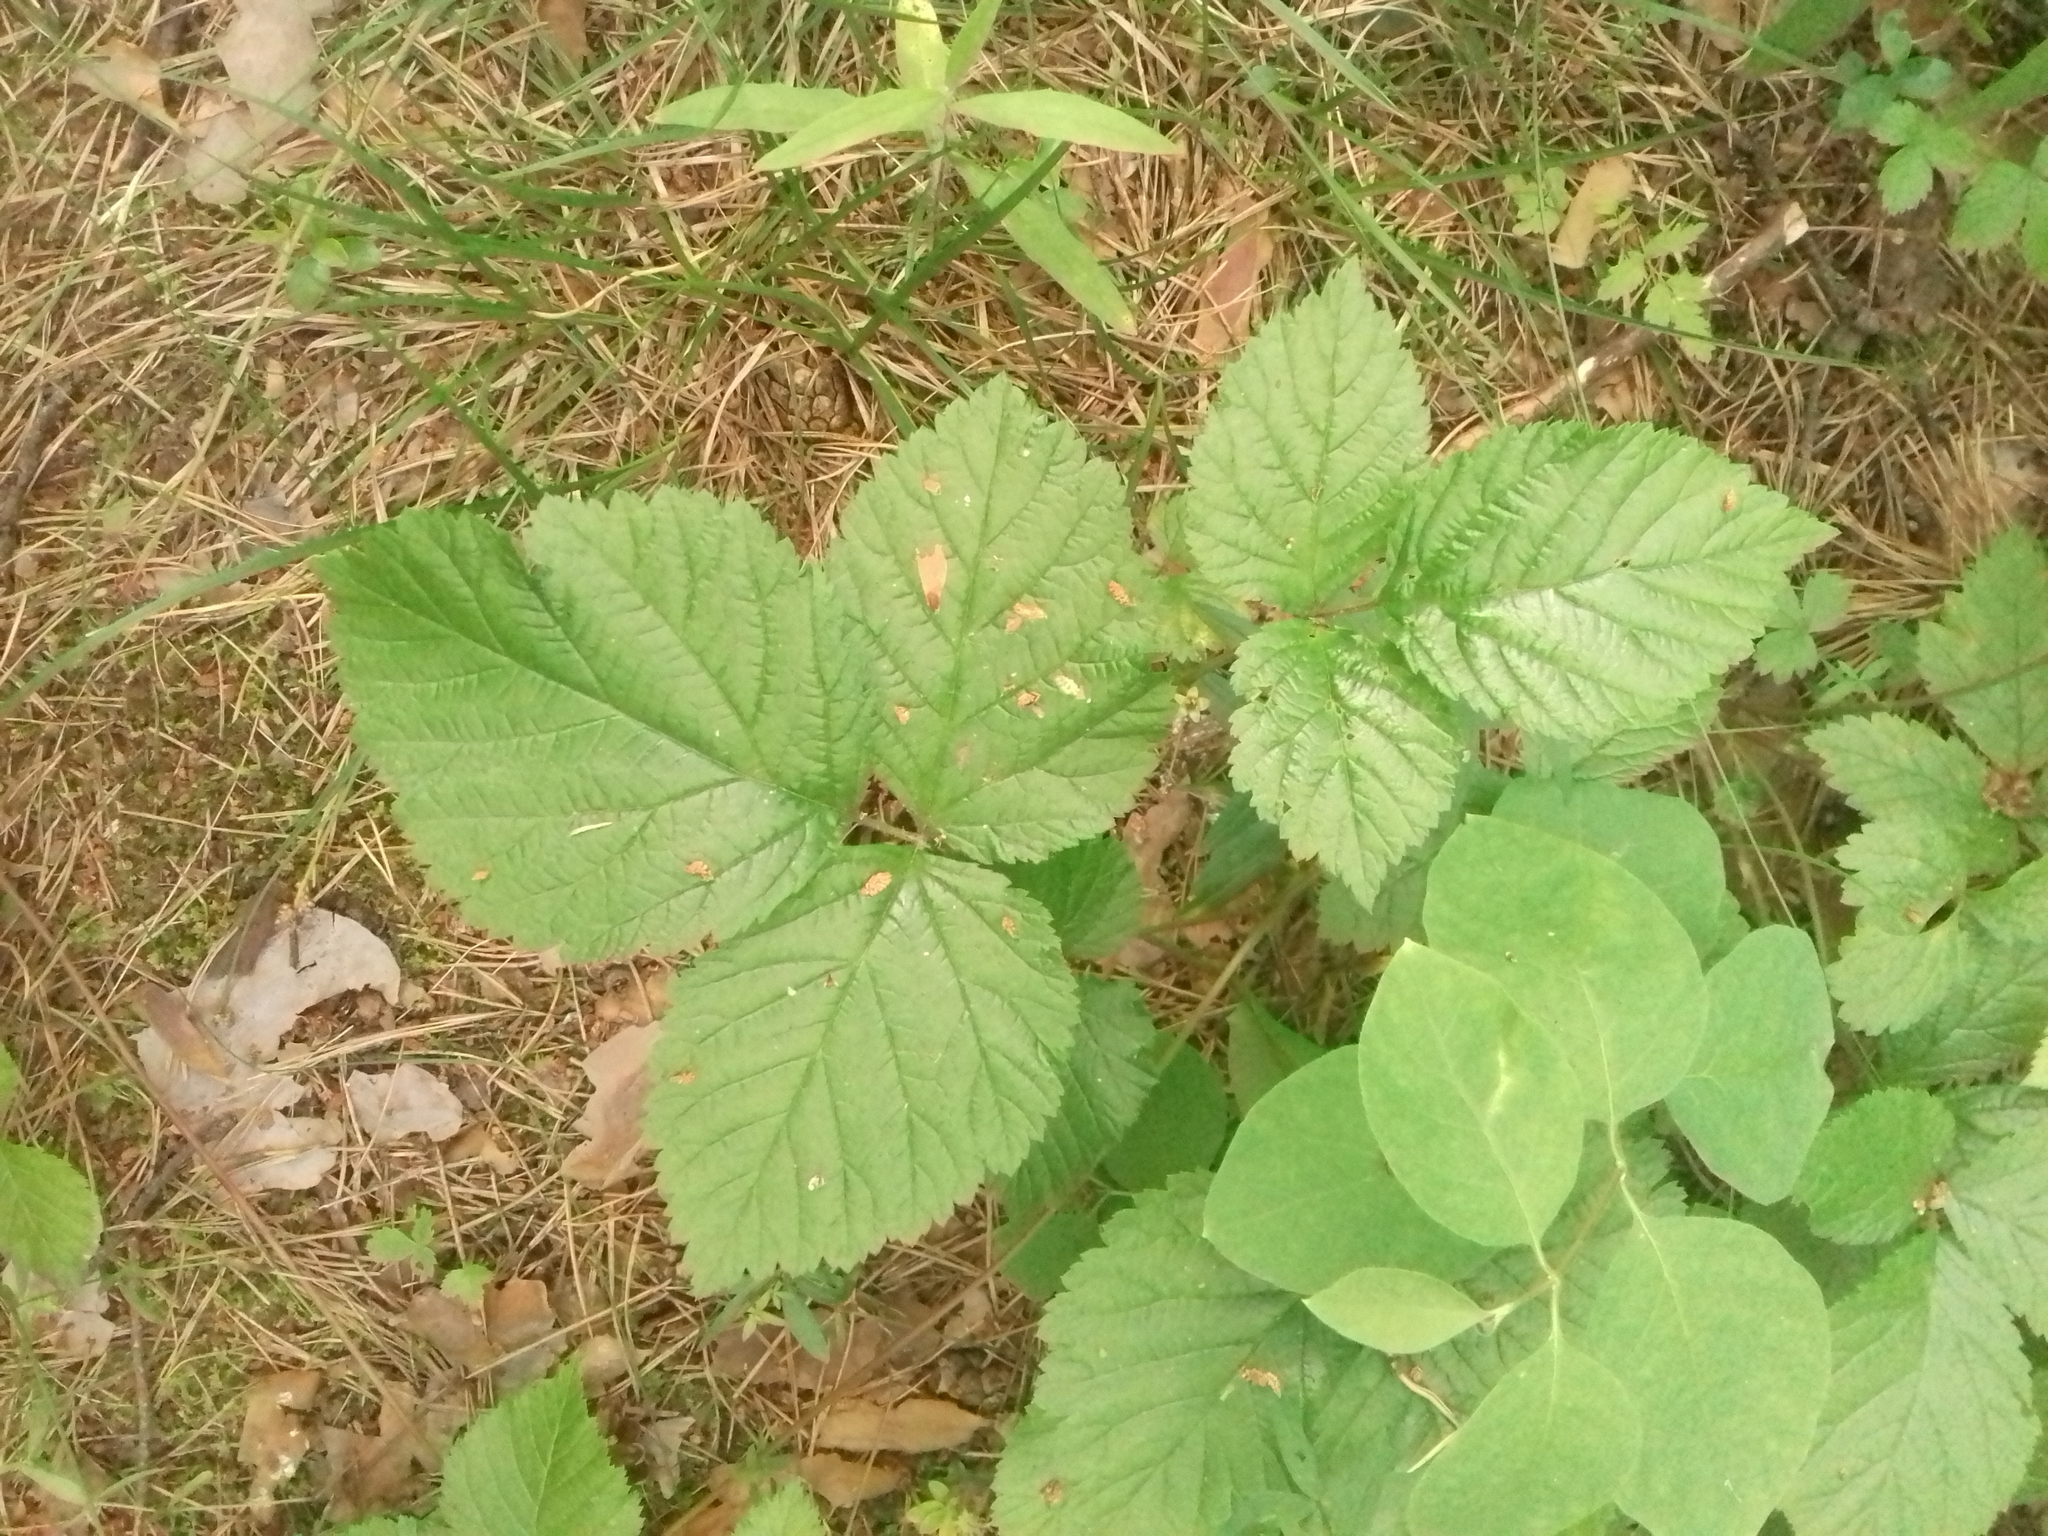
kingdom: Plantae
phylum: Tracheophyta
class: Magnoliopsida
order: Rosales
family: Rosaceae
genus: Rubus
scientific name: Rubus saxatilis
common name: Stone bramble
